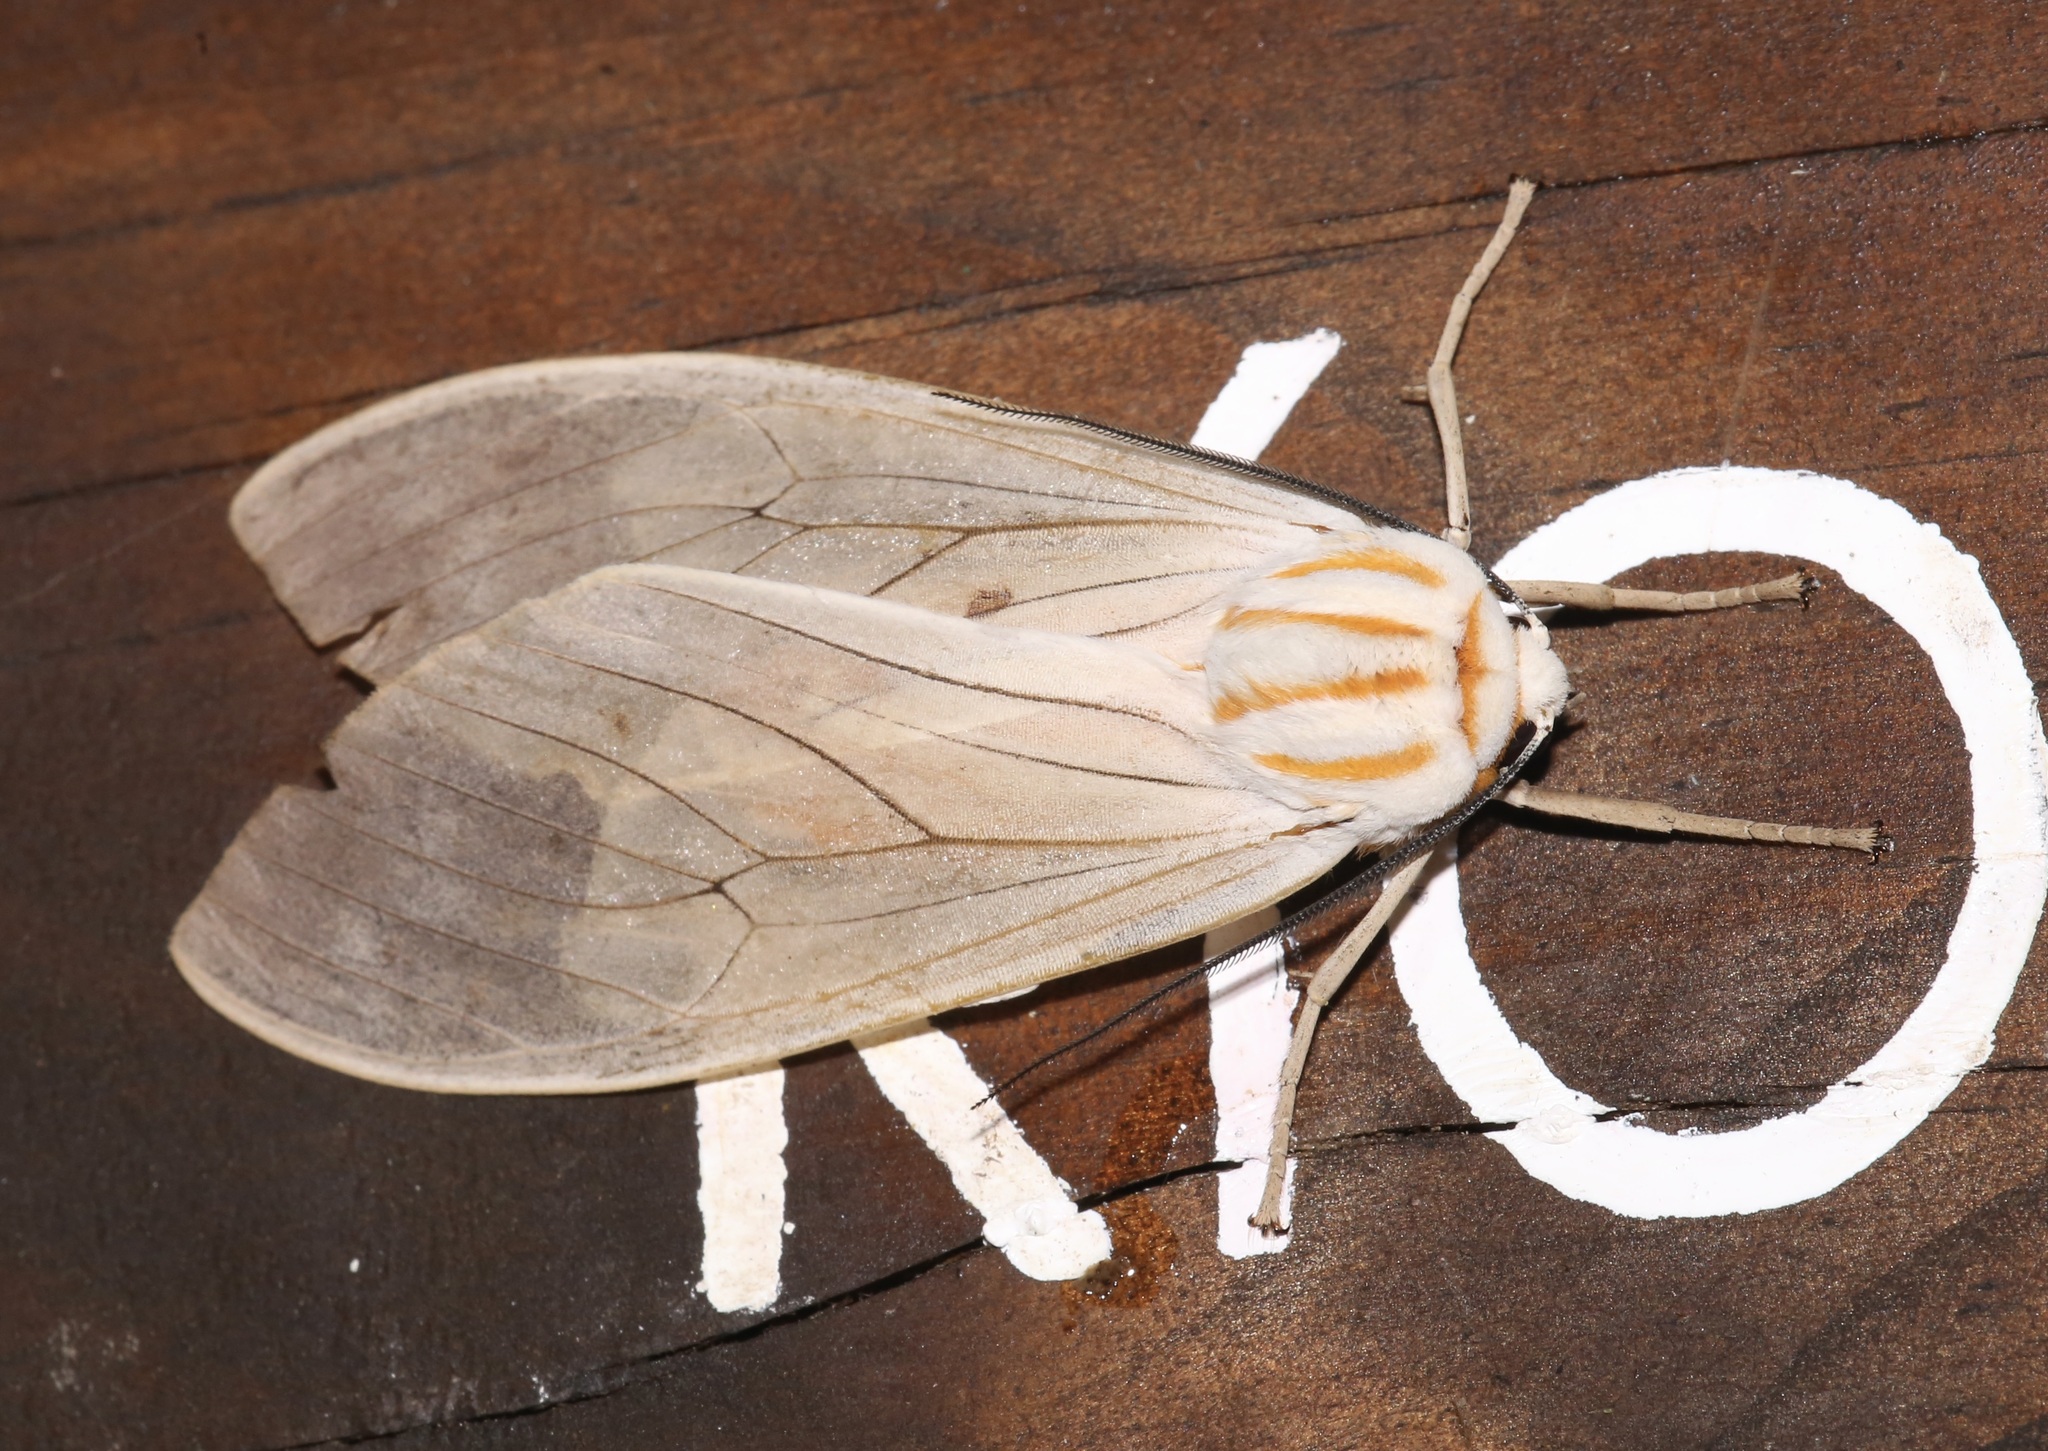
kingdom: Animalia
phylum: Arthropoda
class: Insecta
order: Lepidoptera
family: Erebidae
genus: Amastus
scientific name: Amastus aconia
